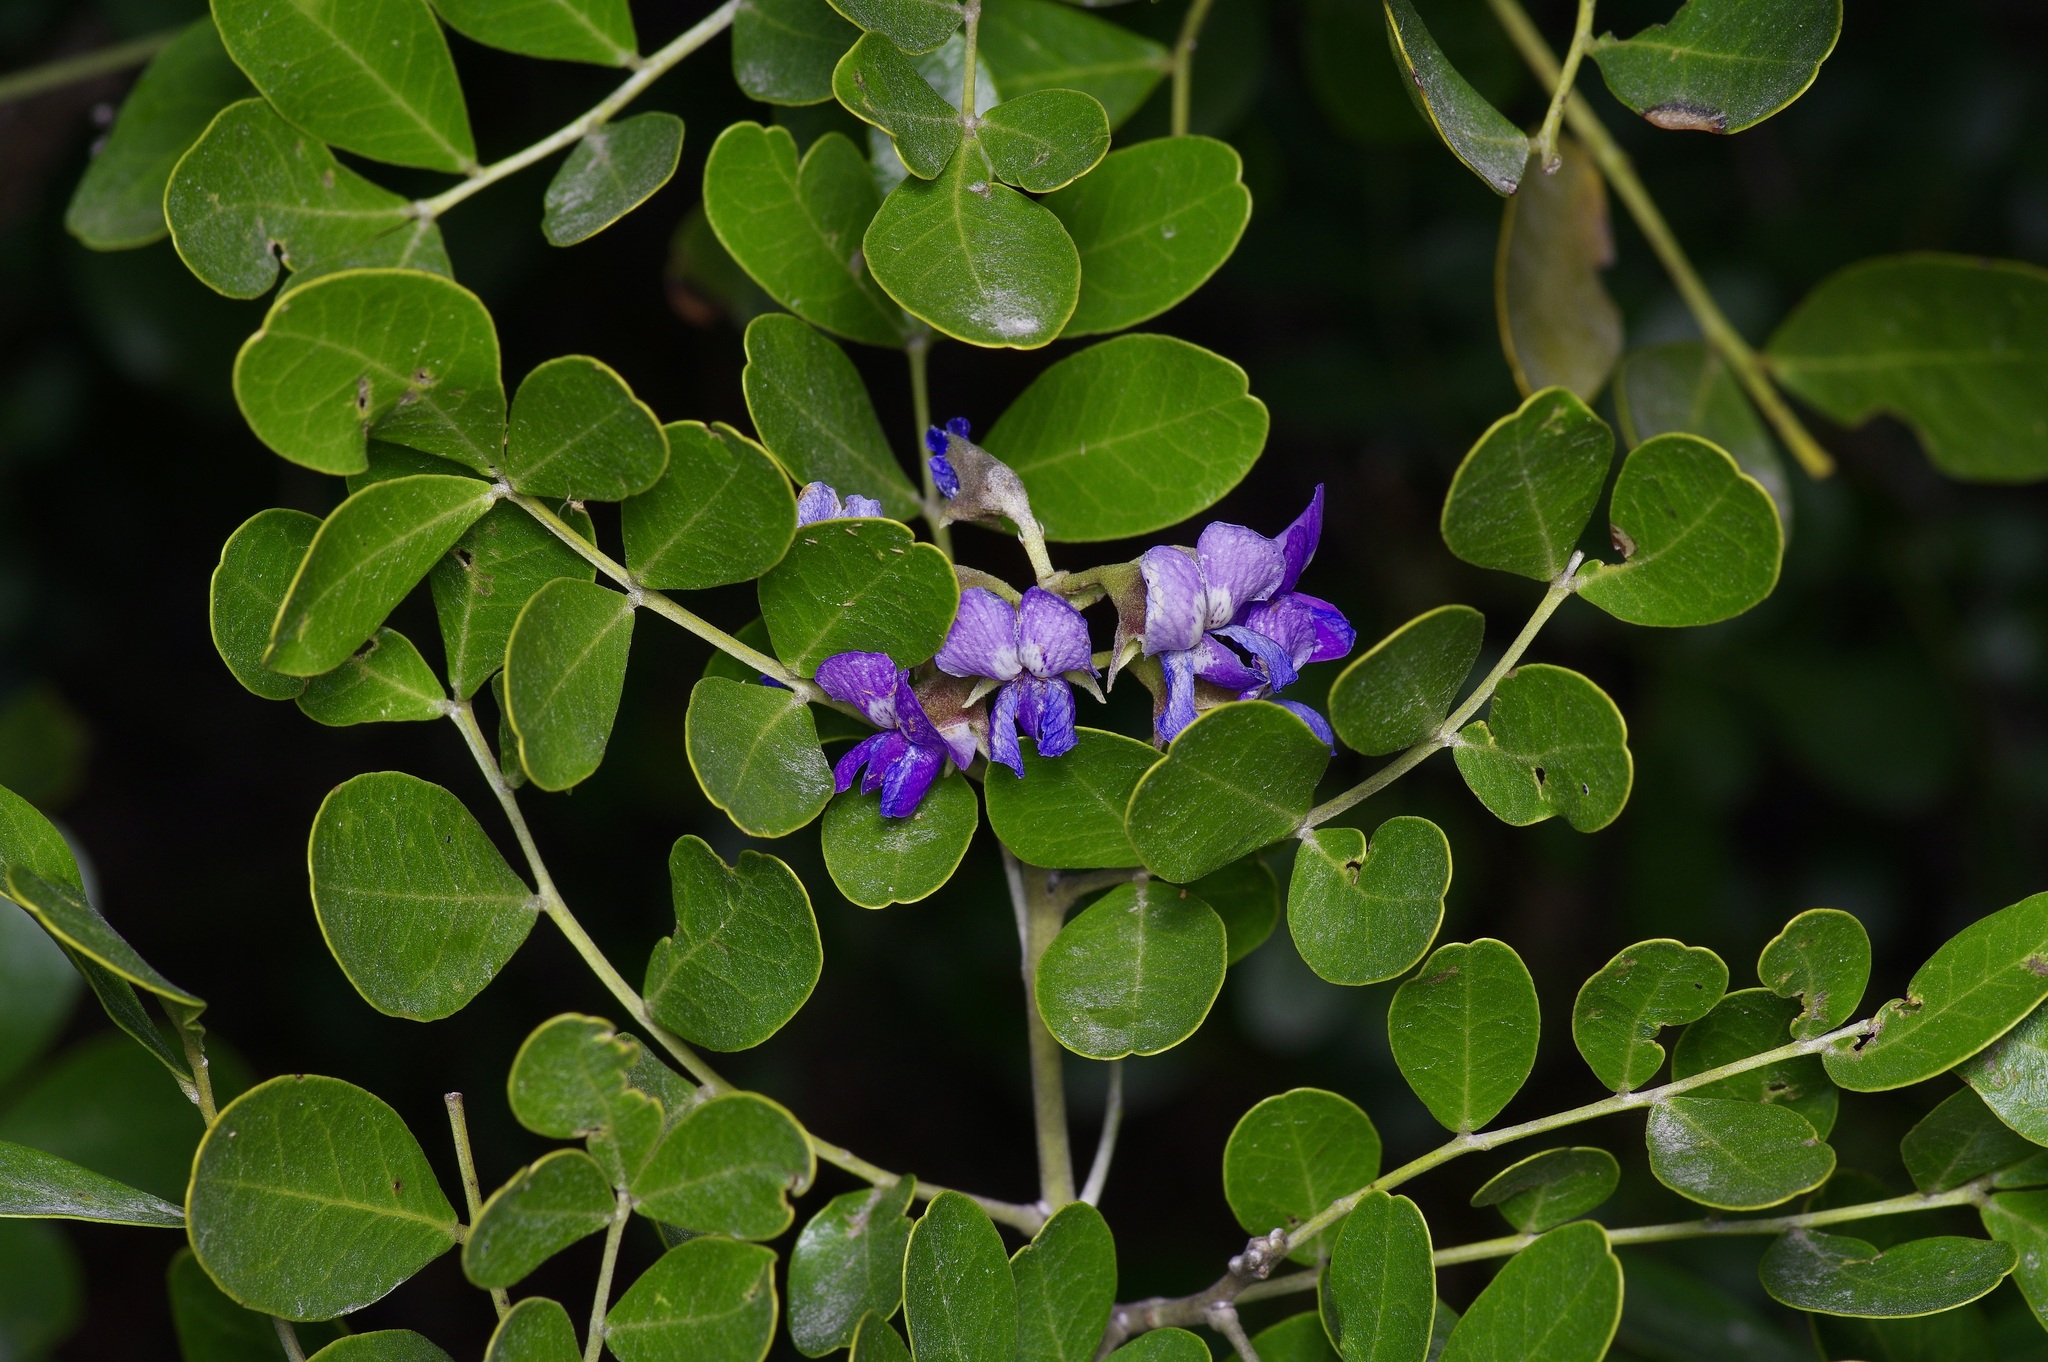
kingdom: Plantae
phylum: Tracheophyta
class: Magnoliopsida
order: Fabales
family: Fabaceae
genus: Dermatophyllum
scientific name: Dermatophyllum secundiflorum
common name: Texas-mountain-laurel
